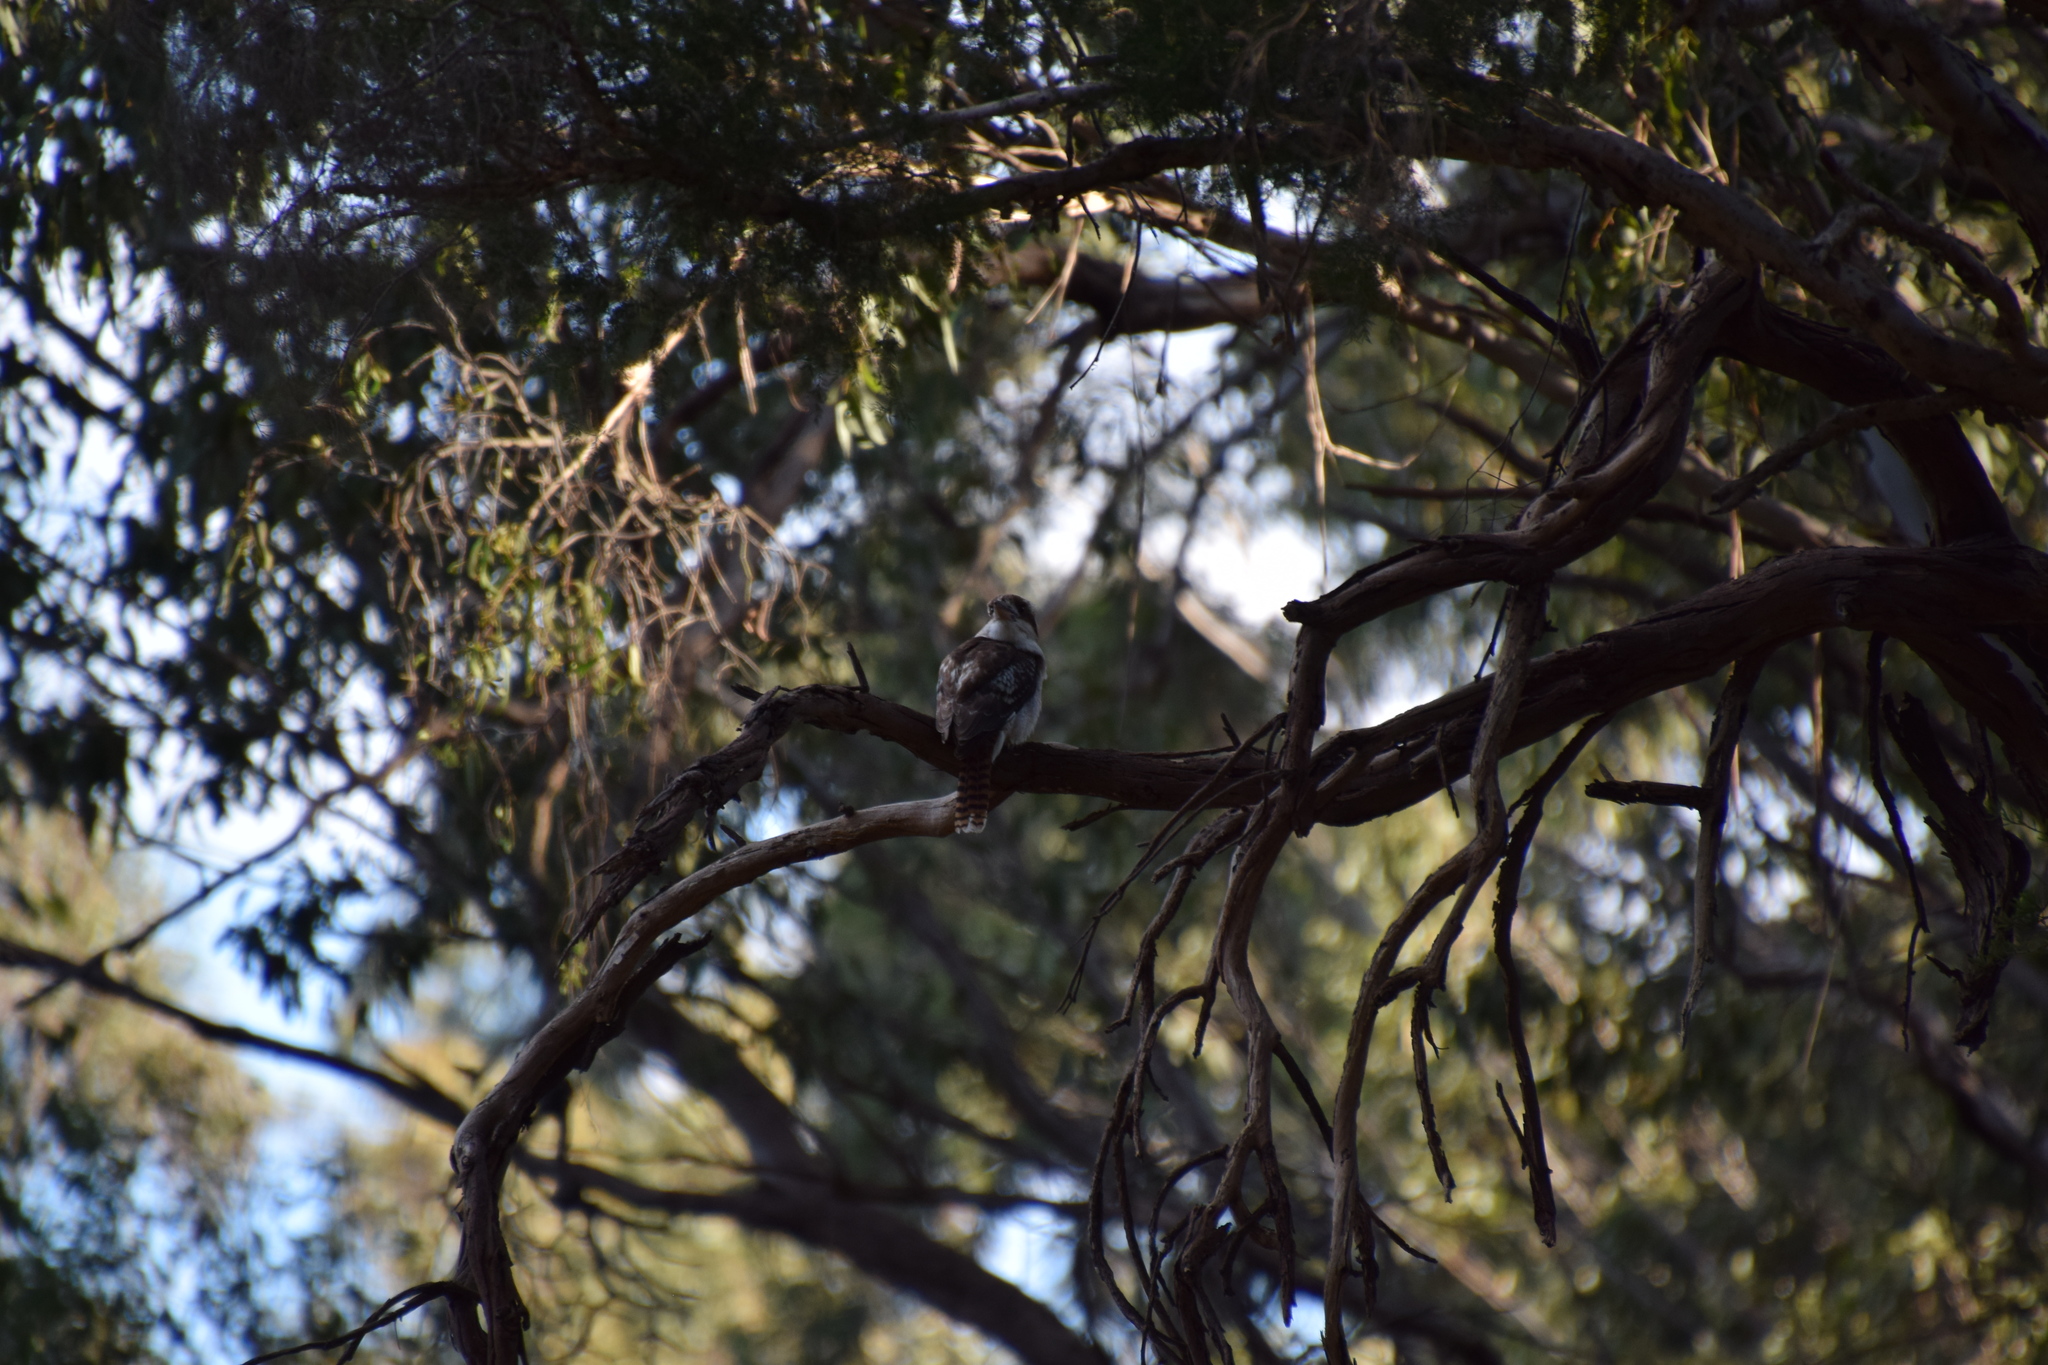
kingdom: Animalia
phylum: Chordata
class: Aves
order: Coraciiformes
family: Alcedinidae
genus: Dacelo
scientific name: Dacelo novaeguineae
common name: Laughing kookaburra
